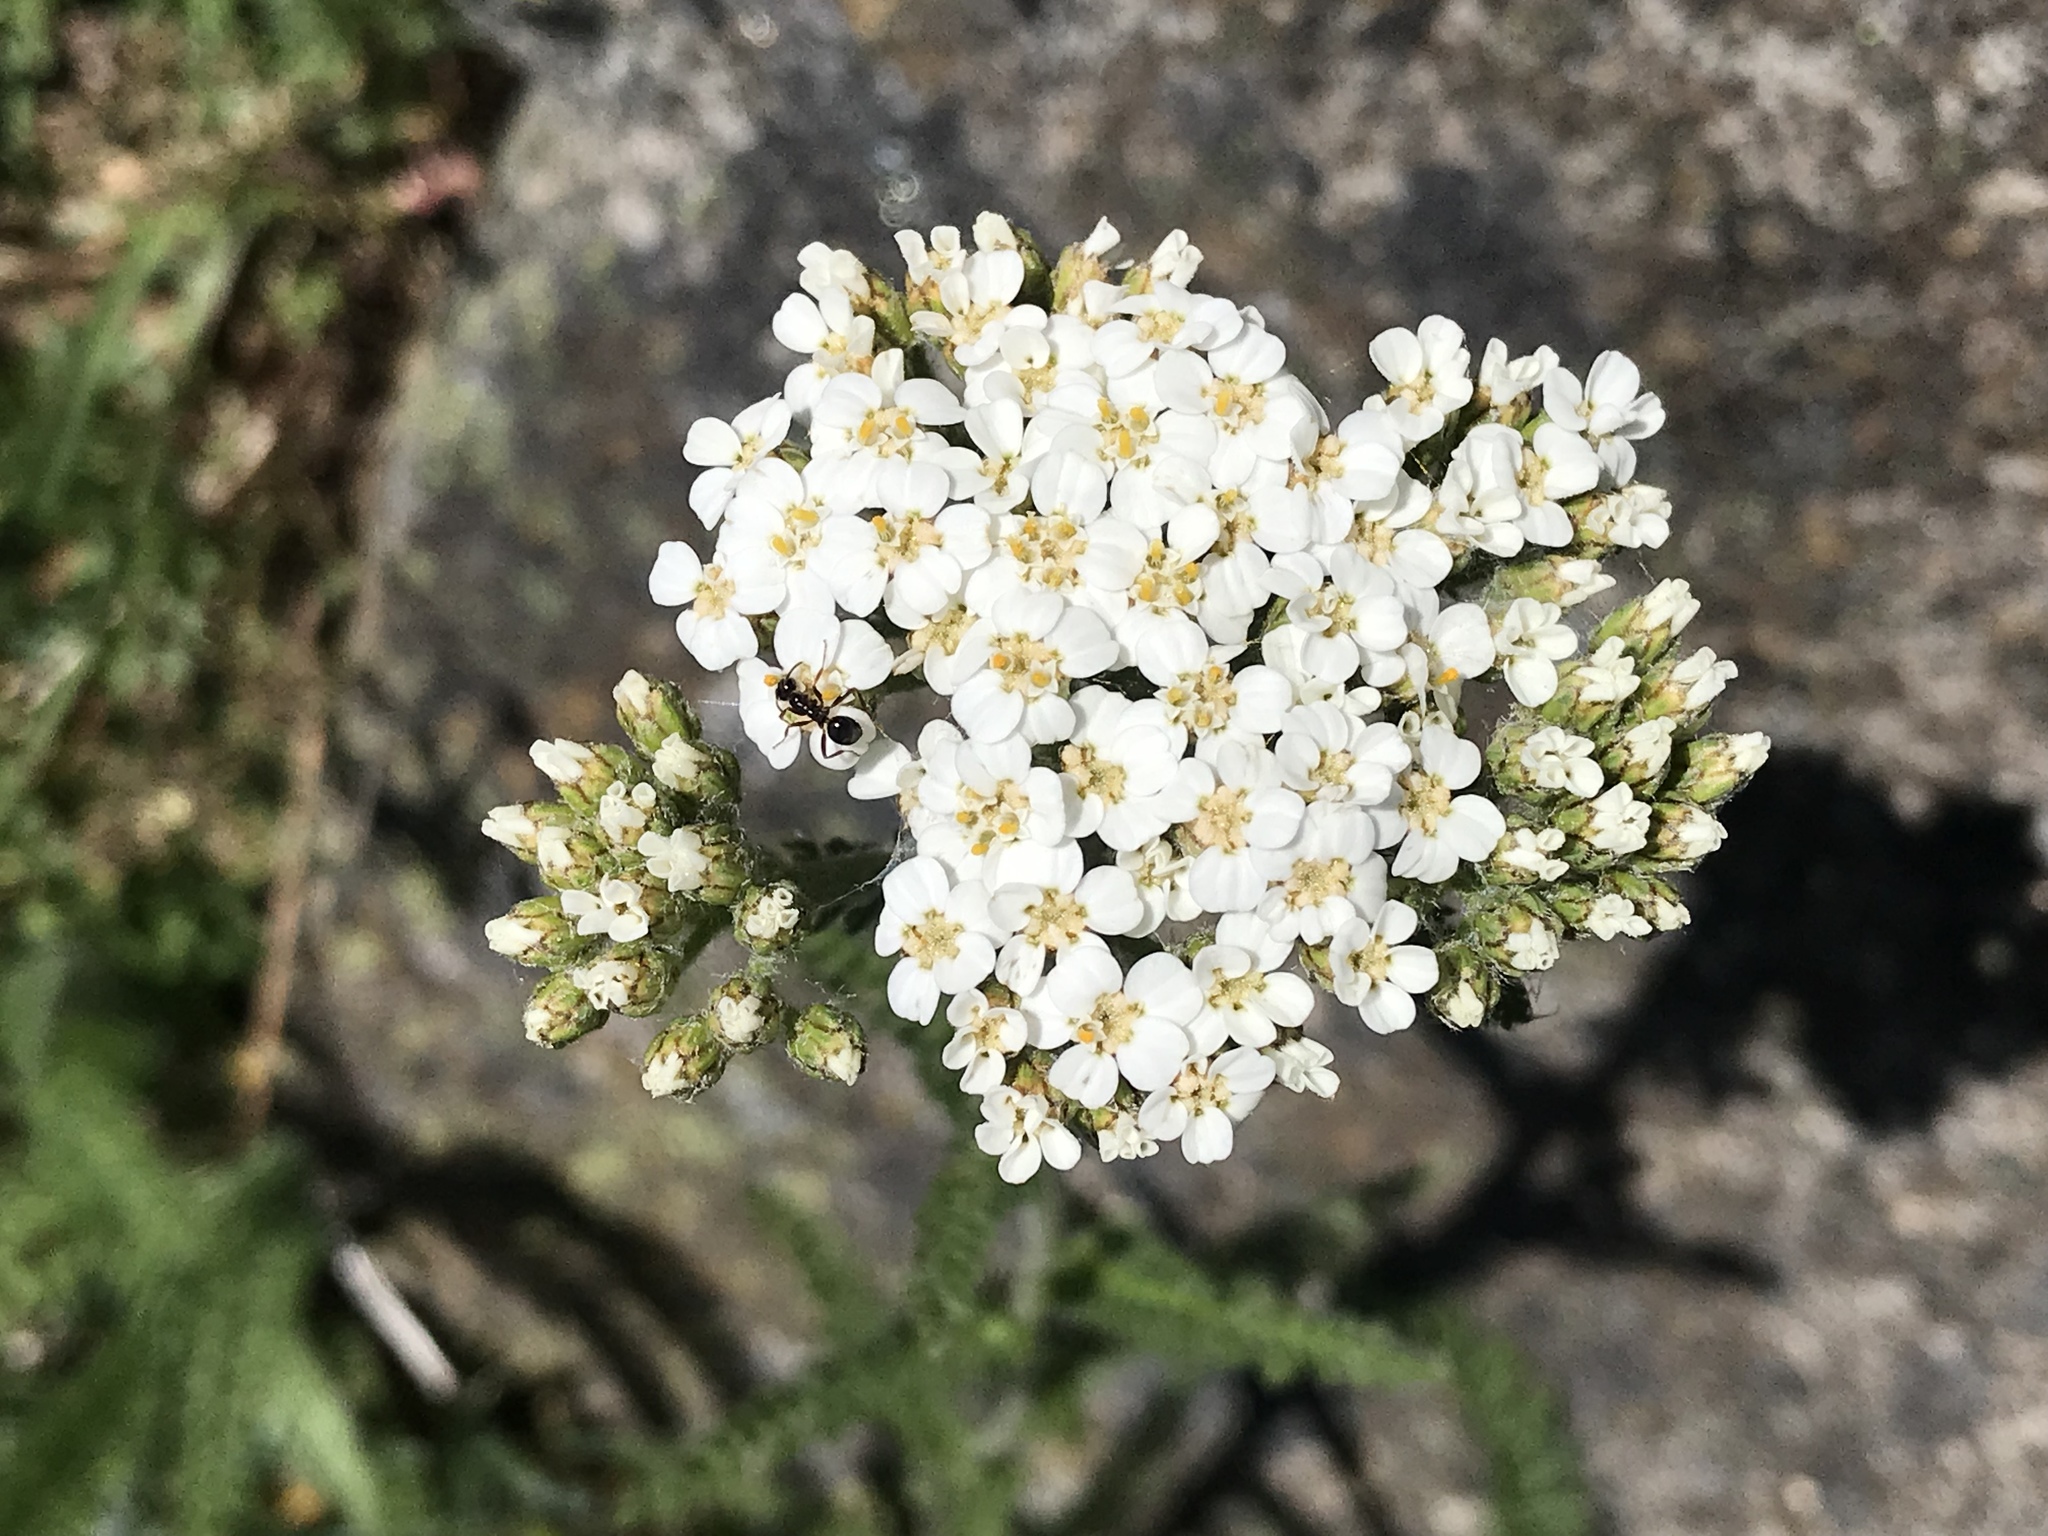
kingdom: Plantae
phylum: Tracheophyta
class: Magnoliopsida
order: Asterales
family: Asteraceae
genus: Achillea
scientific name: Achillea millefolium
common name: Yarrow
